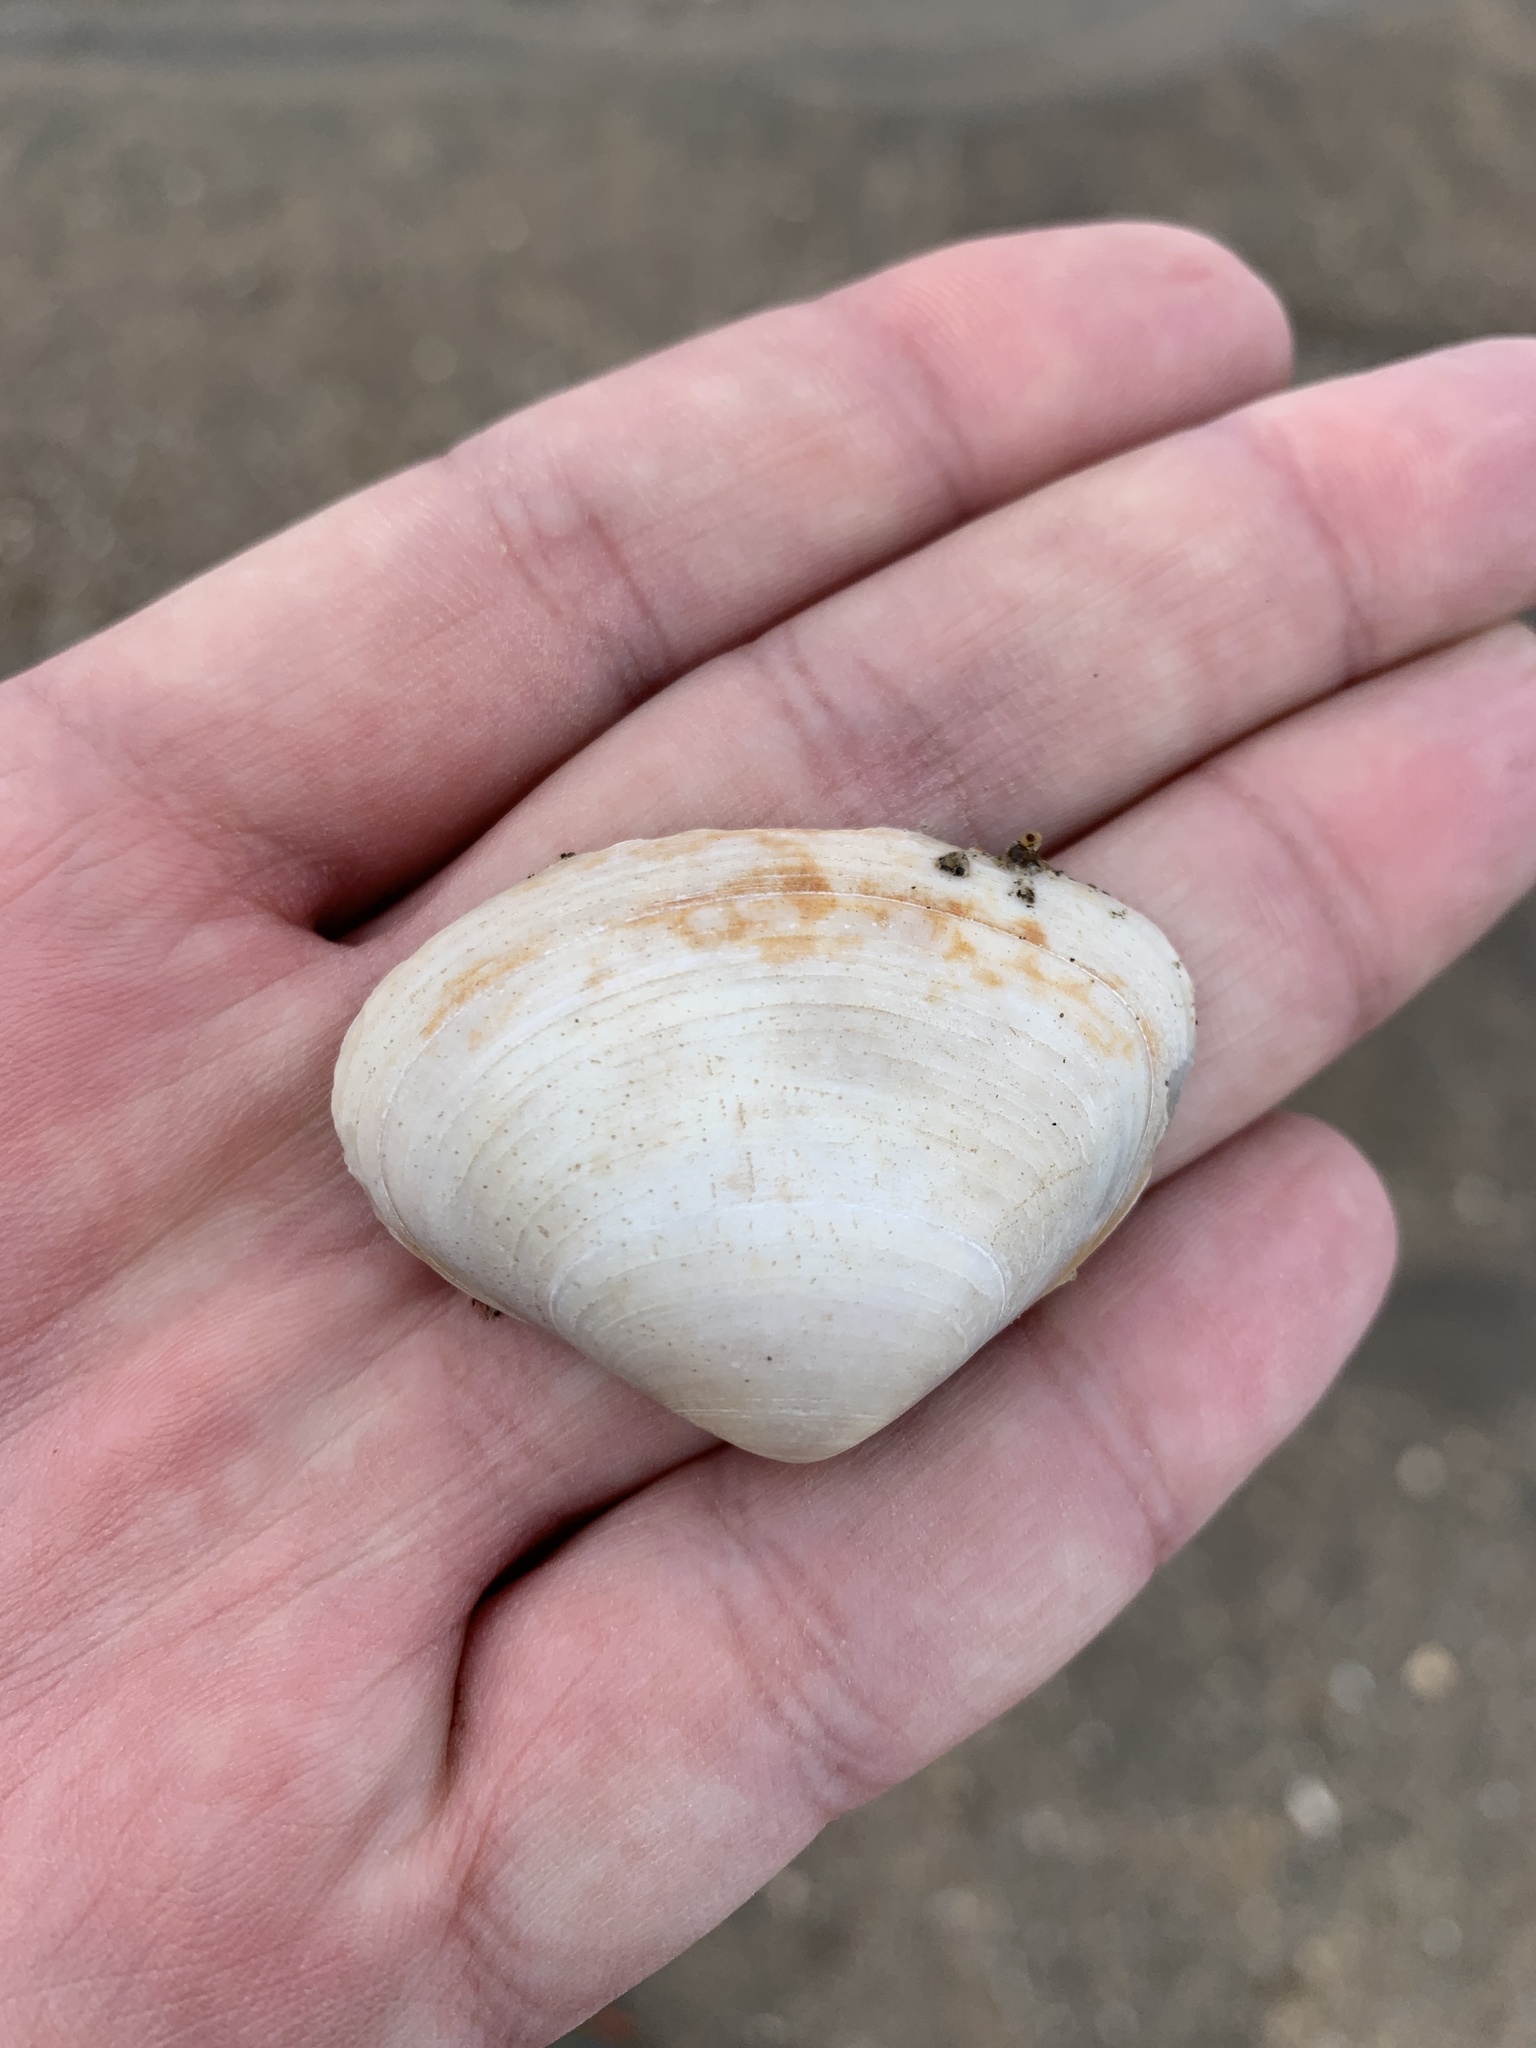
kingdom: Animalia
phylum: Mollusca
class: Bivalvia
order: Venerida
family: Veneridae
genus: Tivela
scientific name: Tivela dentaria
